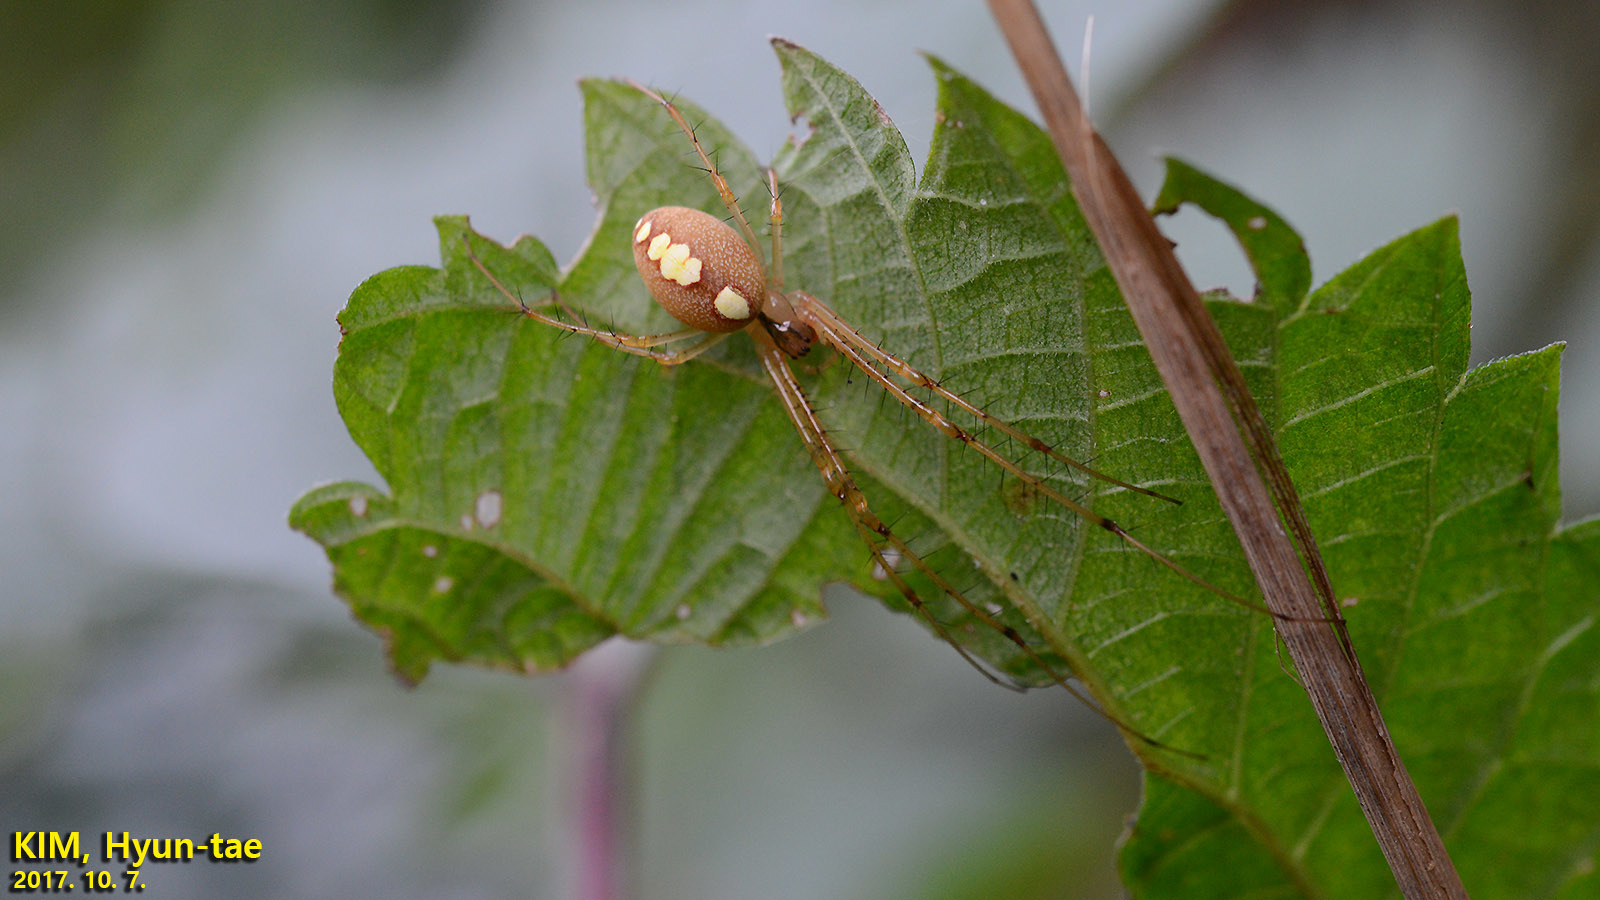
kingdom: Animalia
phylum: Arthropoda
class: Arachnida
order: Araneae
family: Tetragnathidae
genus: Metellina
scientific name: Metellina ornata
